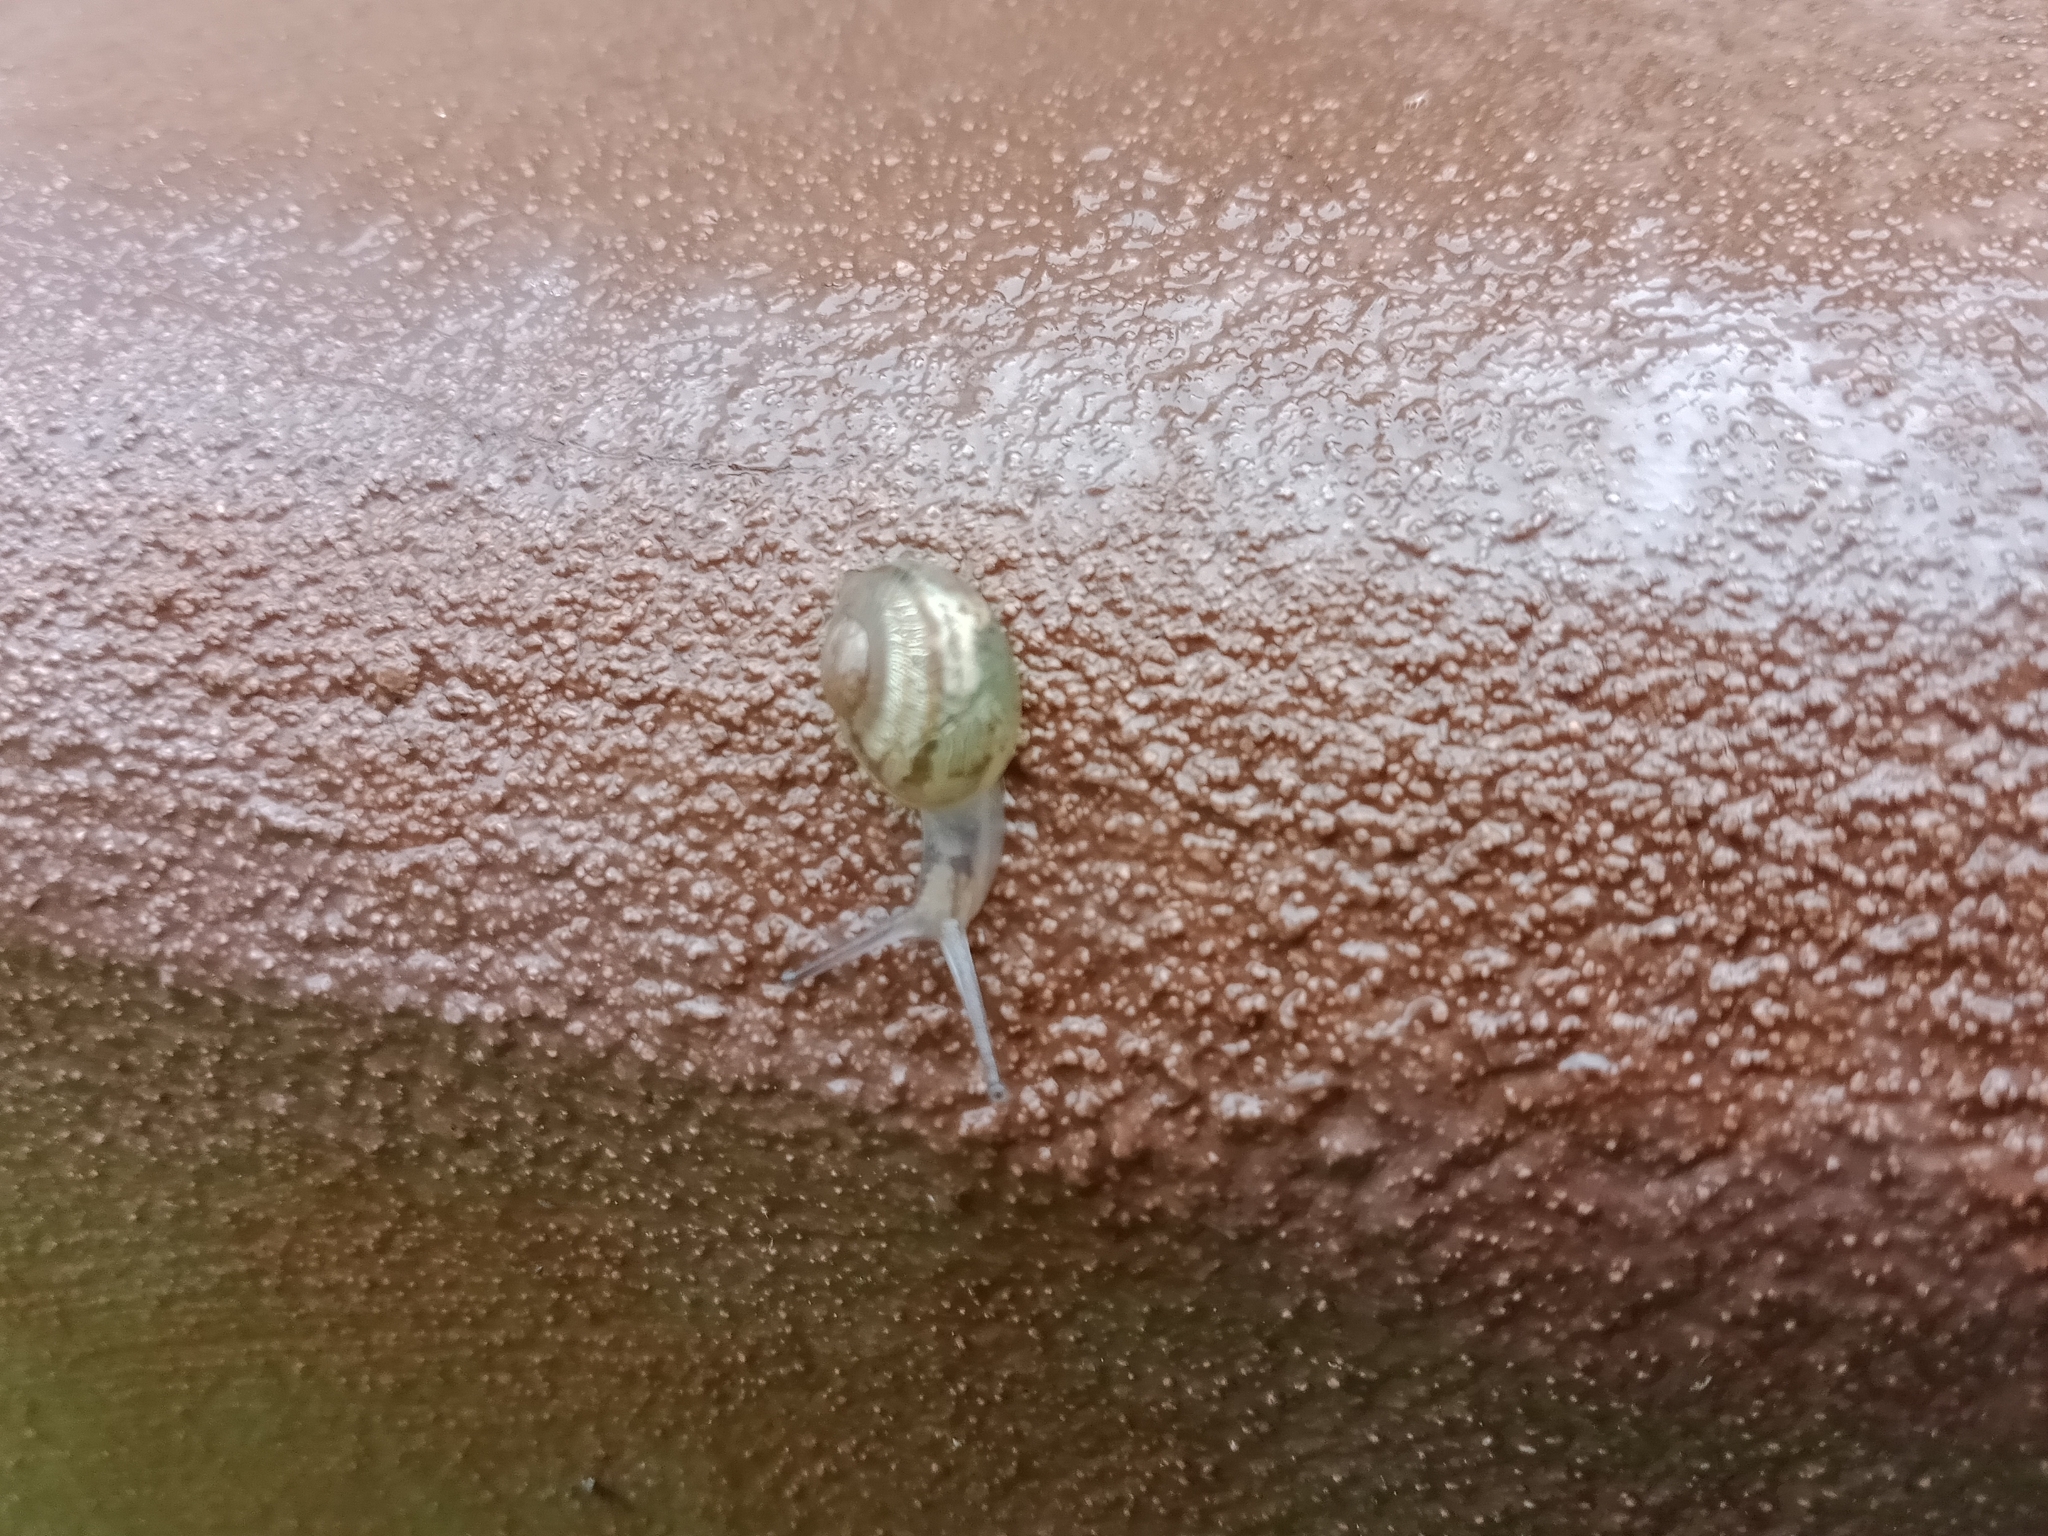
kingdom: Animalia
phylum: Mollusca
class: Gastropoda
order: Stylommatophora
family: Helicidae
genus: Cornu
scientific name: Cornu aspersum
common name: Brown garden snail
